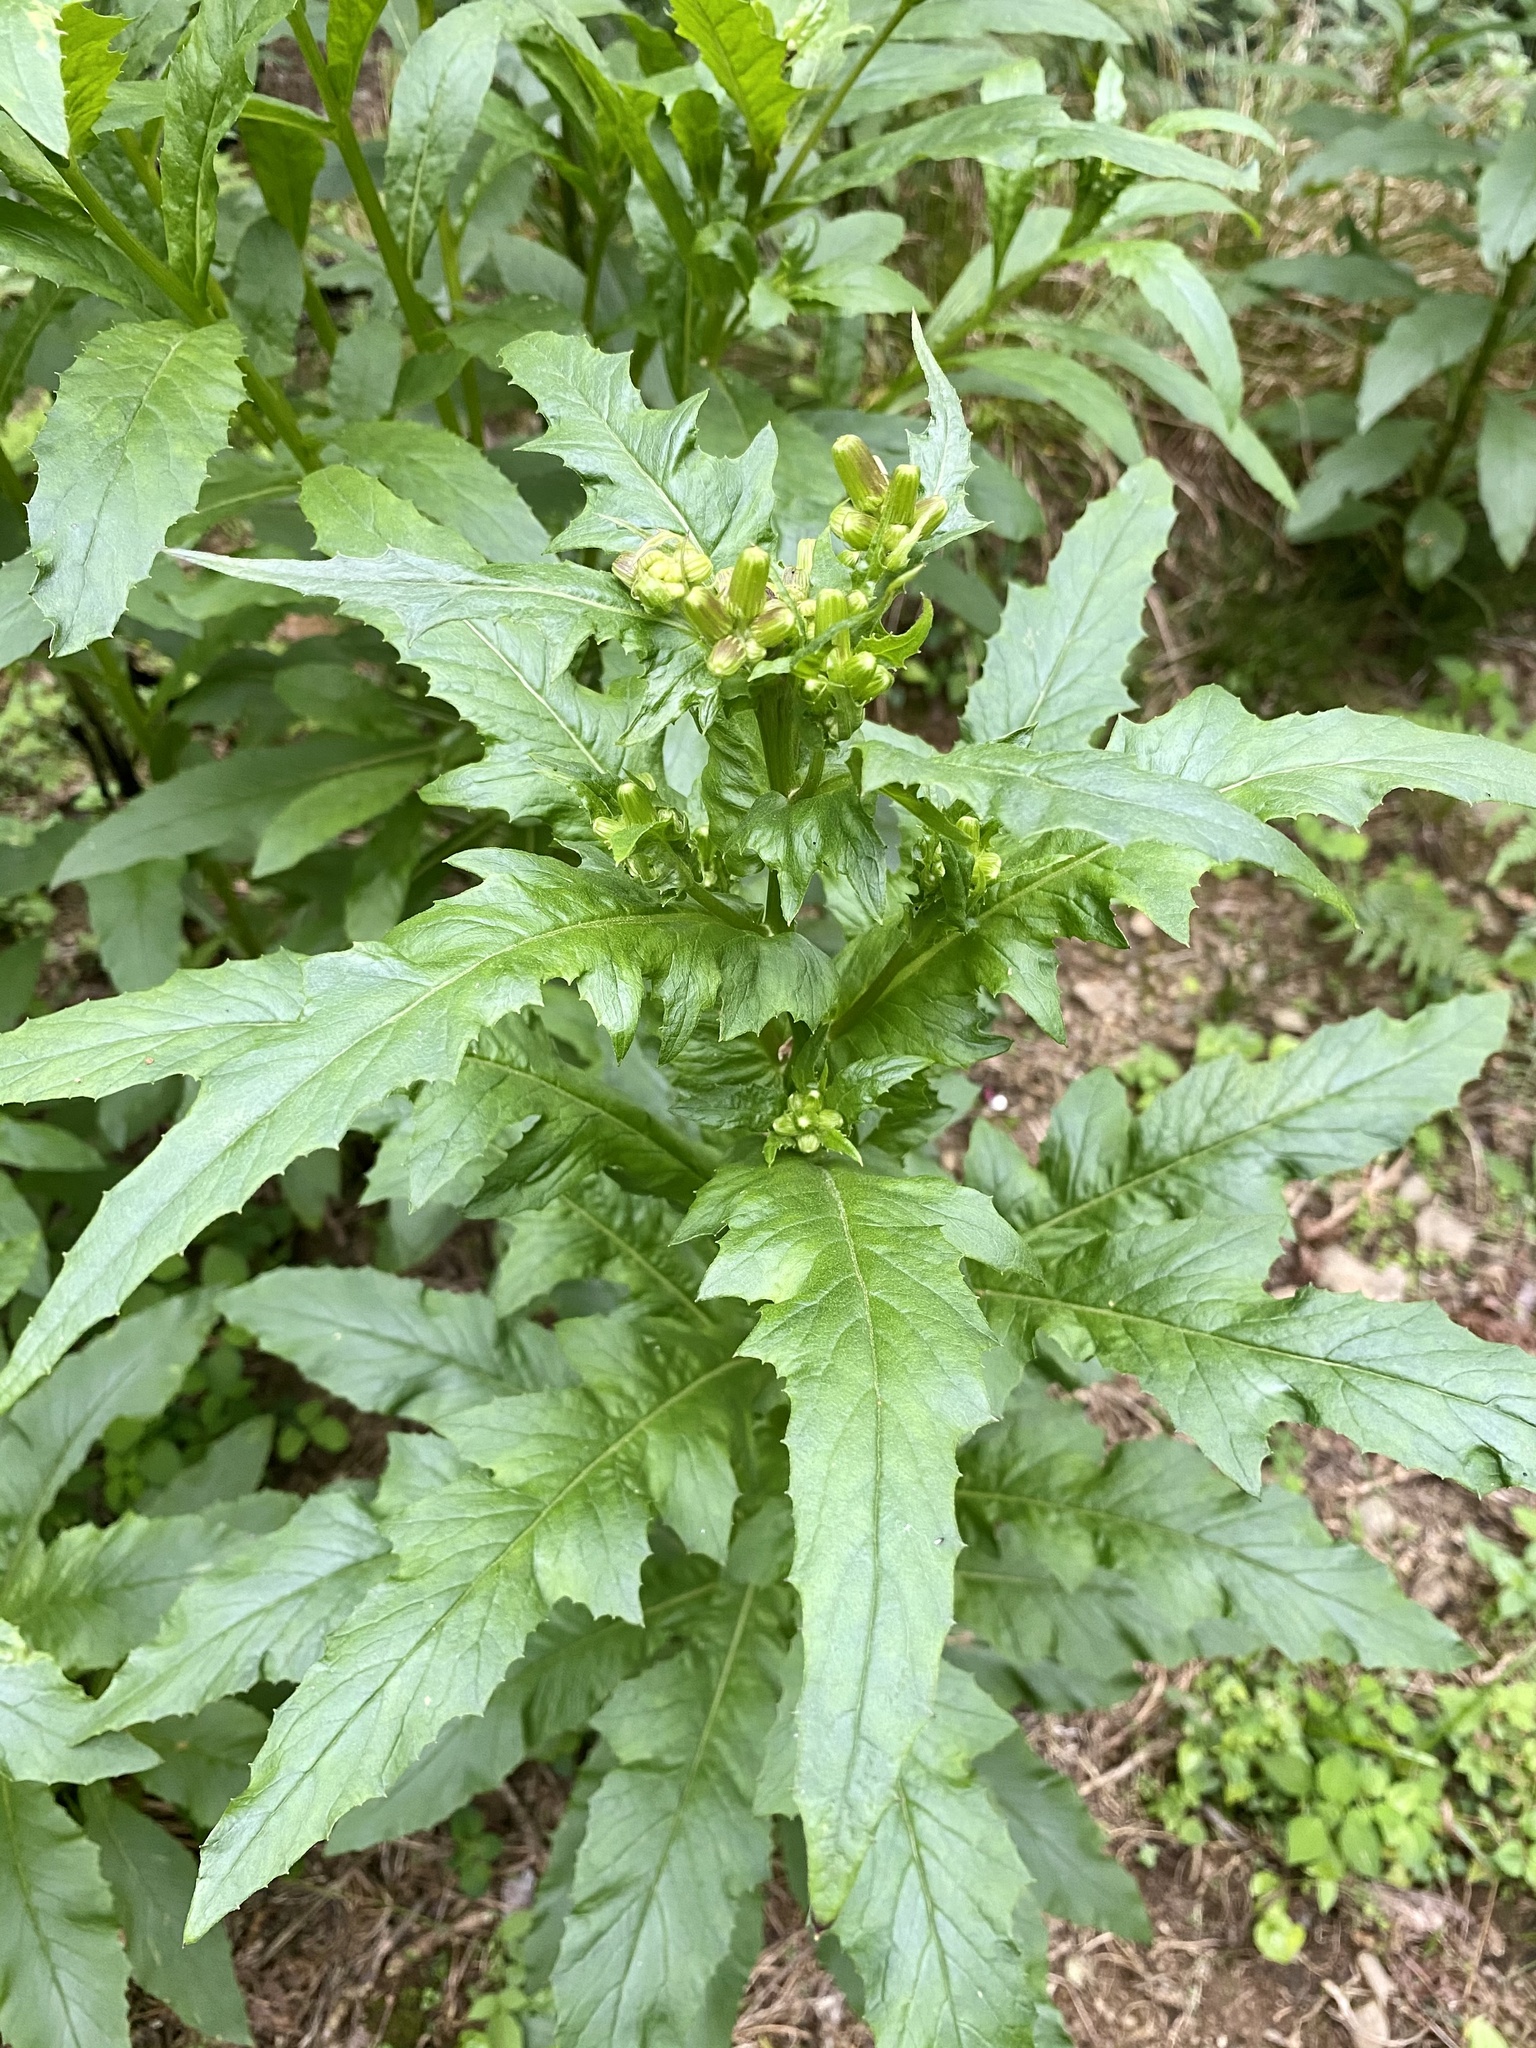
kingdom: Plantae
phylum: Tracheophyta
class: Magnoliopsida
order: Asterales
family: Asteraceae
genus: Erechtites
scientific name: Erechtites hieraciifolius
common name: American burnweed
